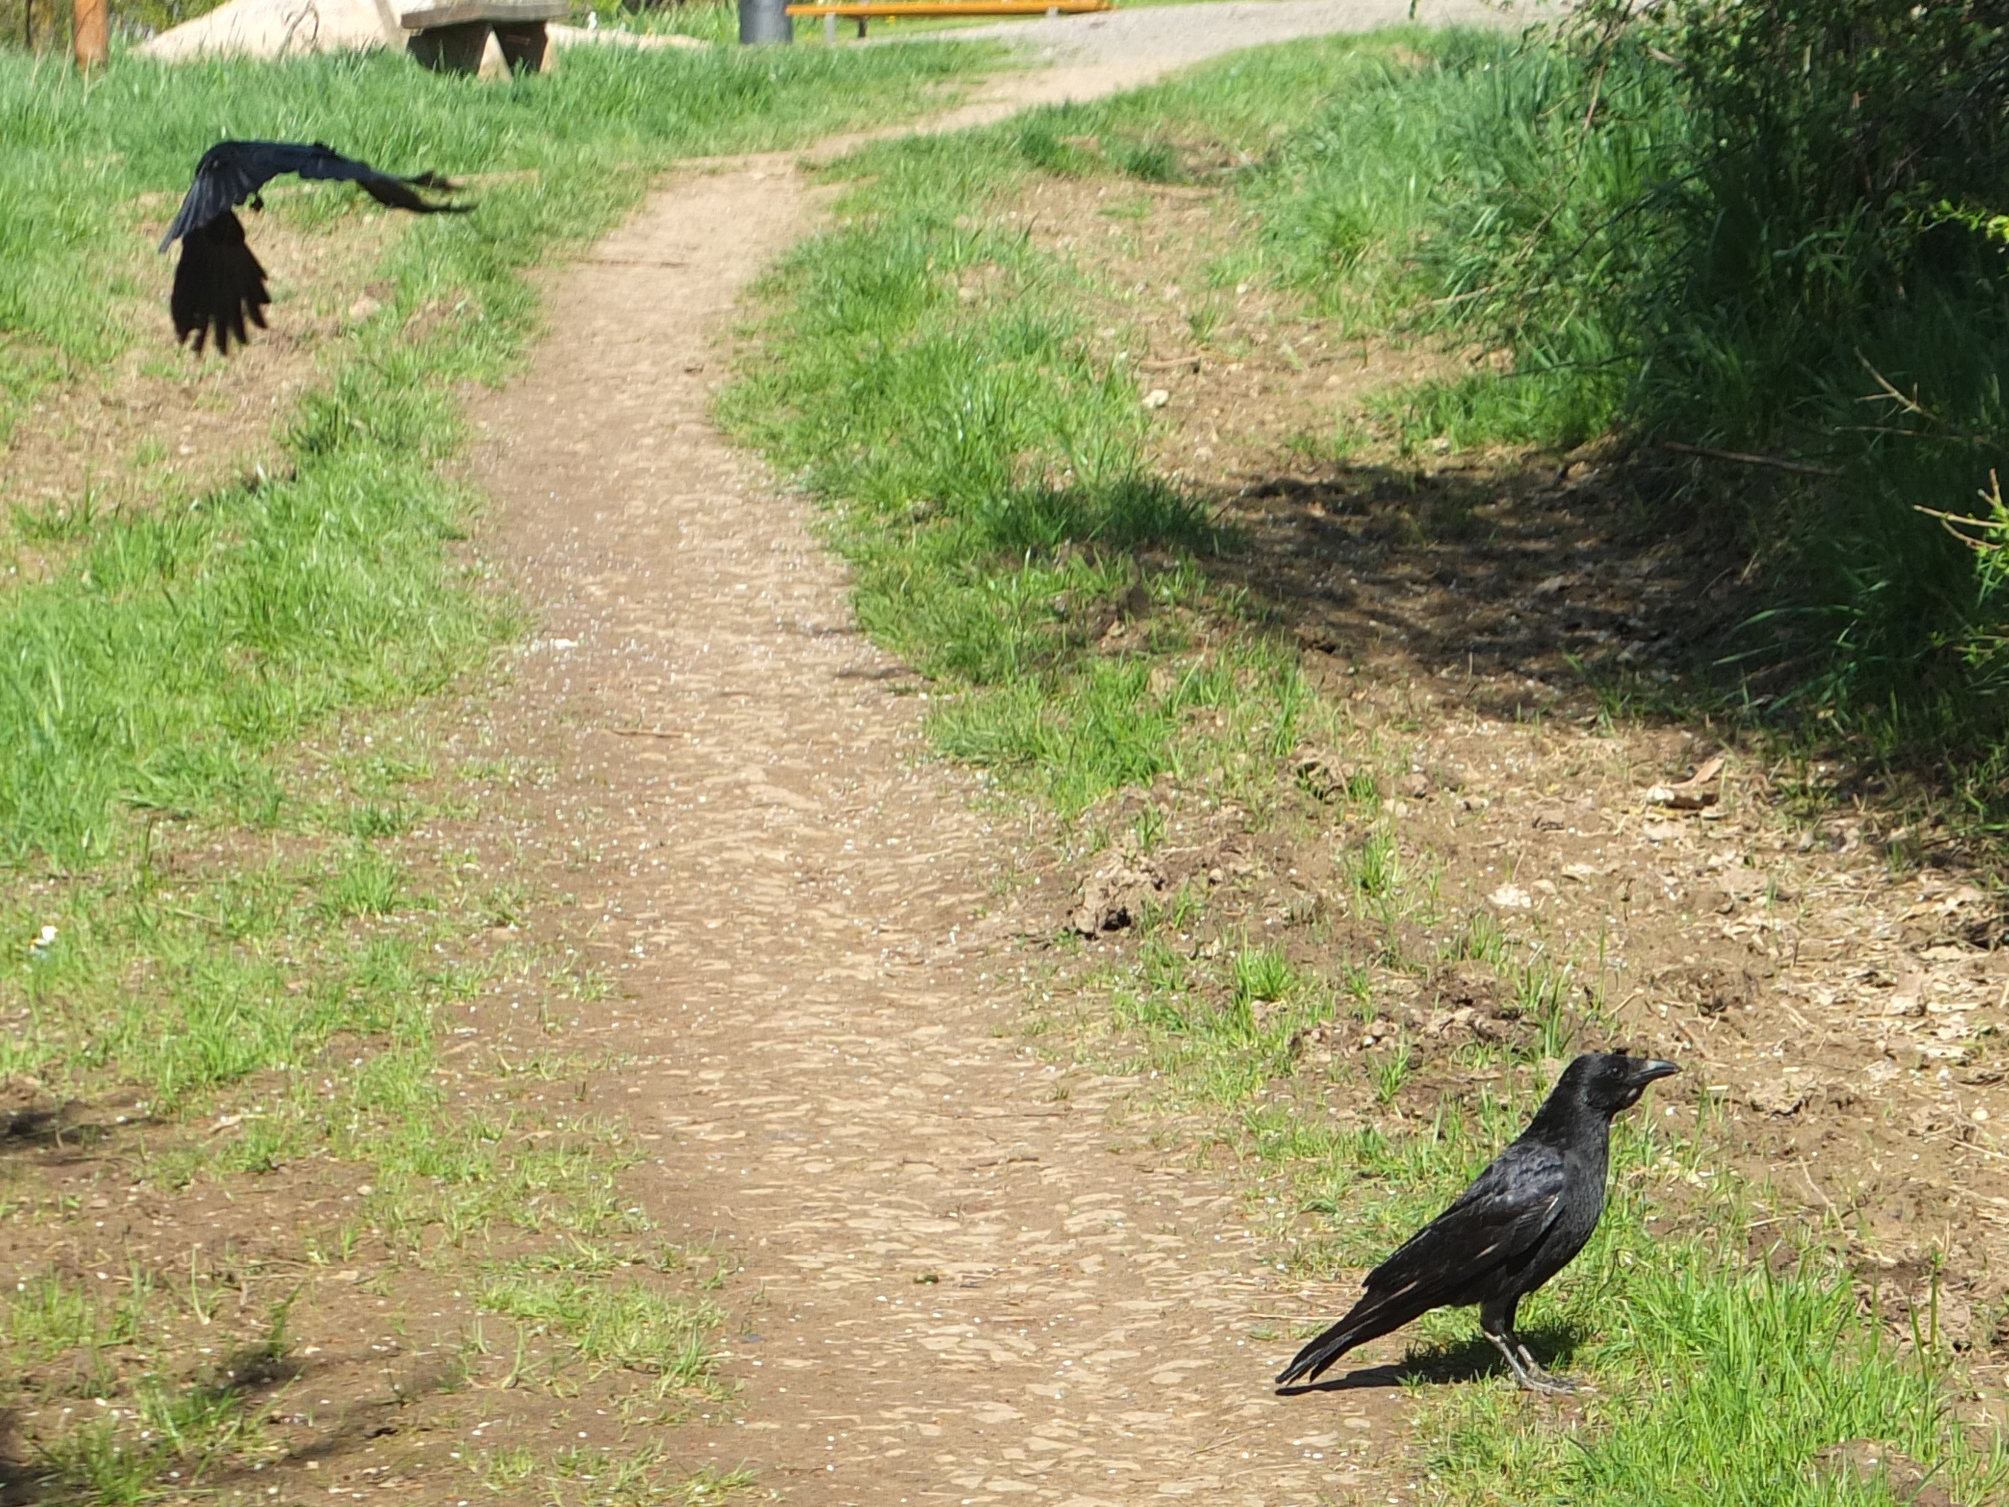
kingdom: Animalia
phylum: Chordata
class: Aves
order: Passeriformes
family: Corvidae
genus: Corvus
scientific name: Corvus corone
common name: Carrion crow
